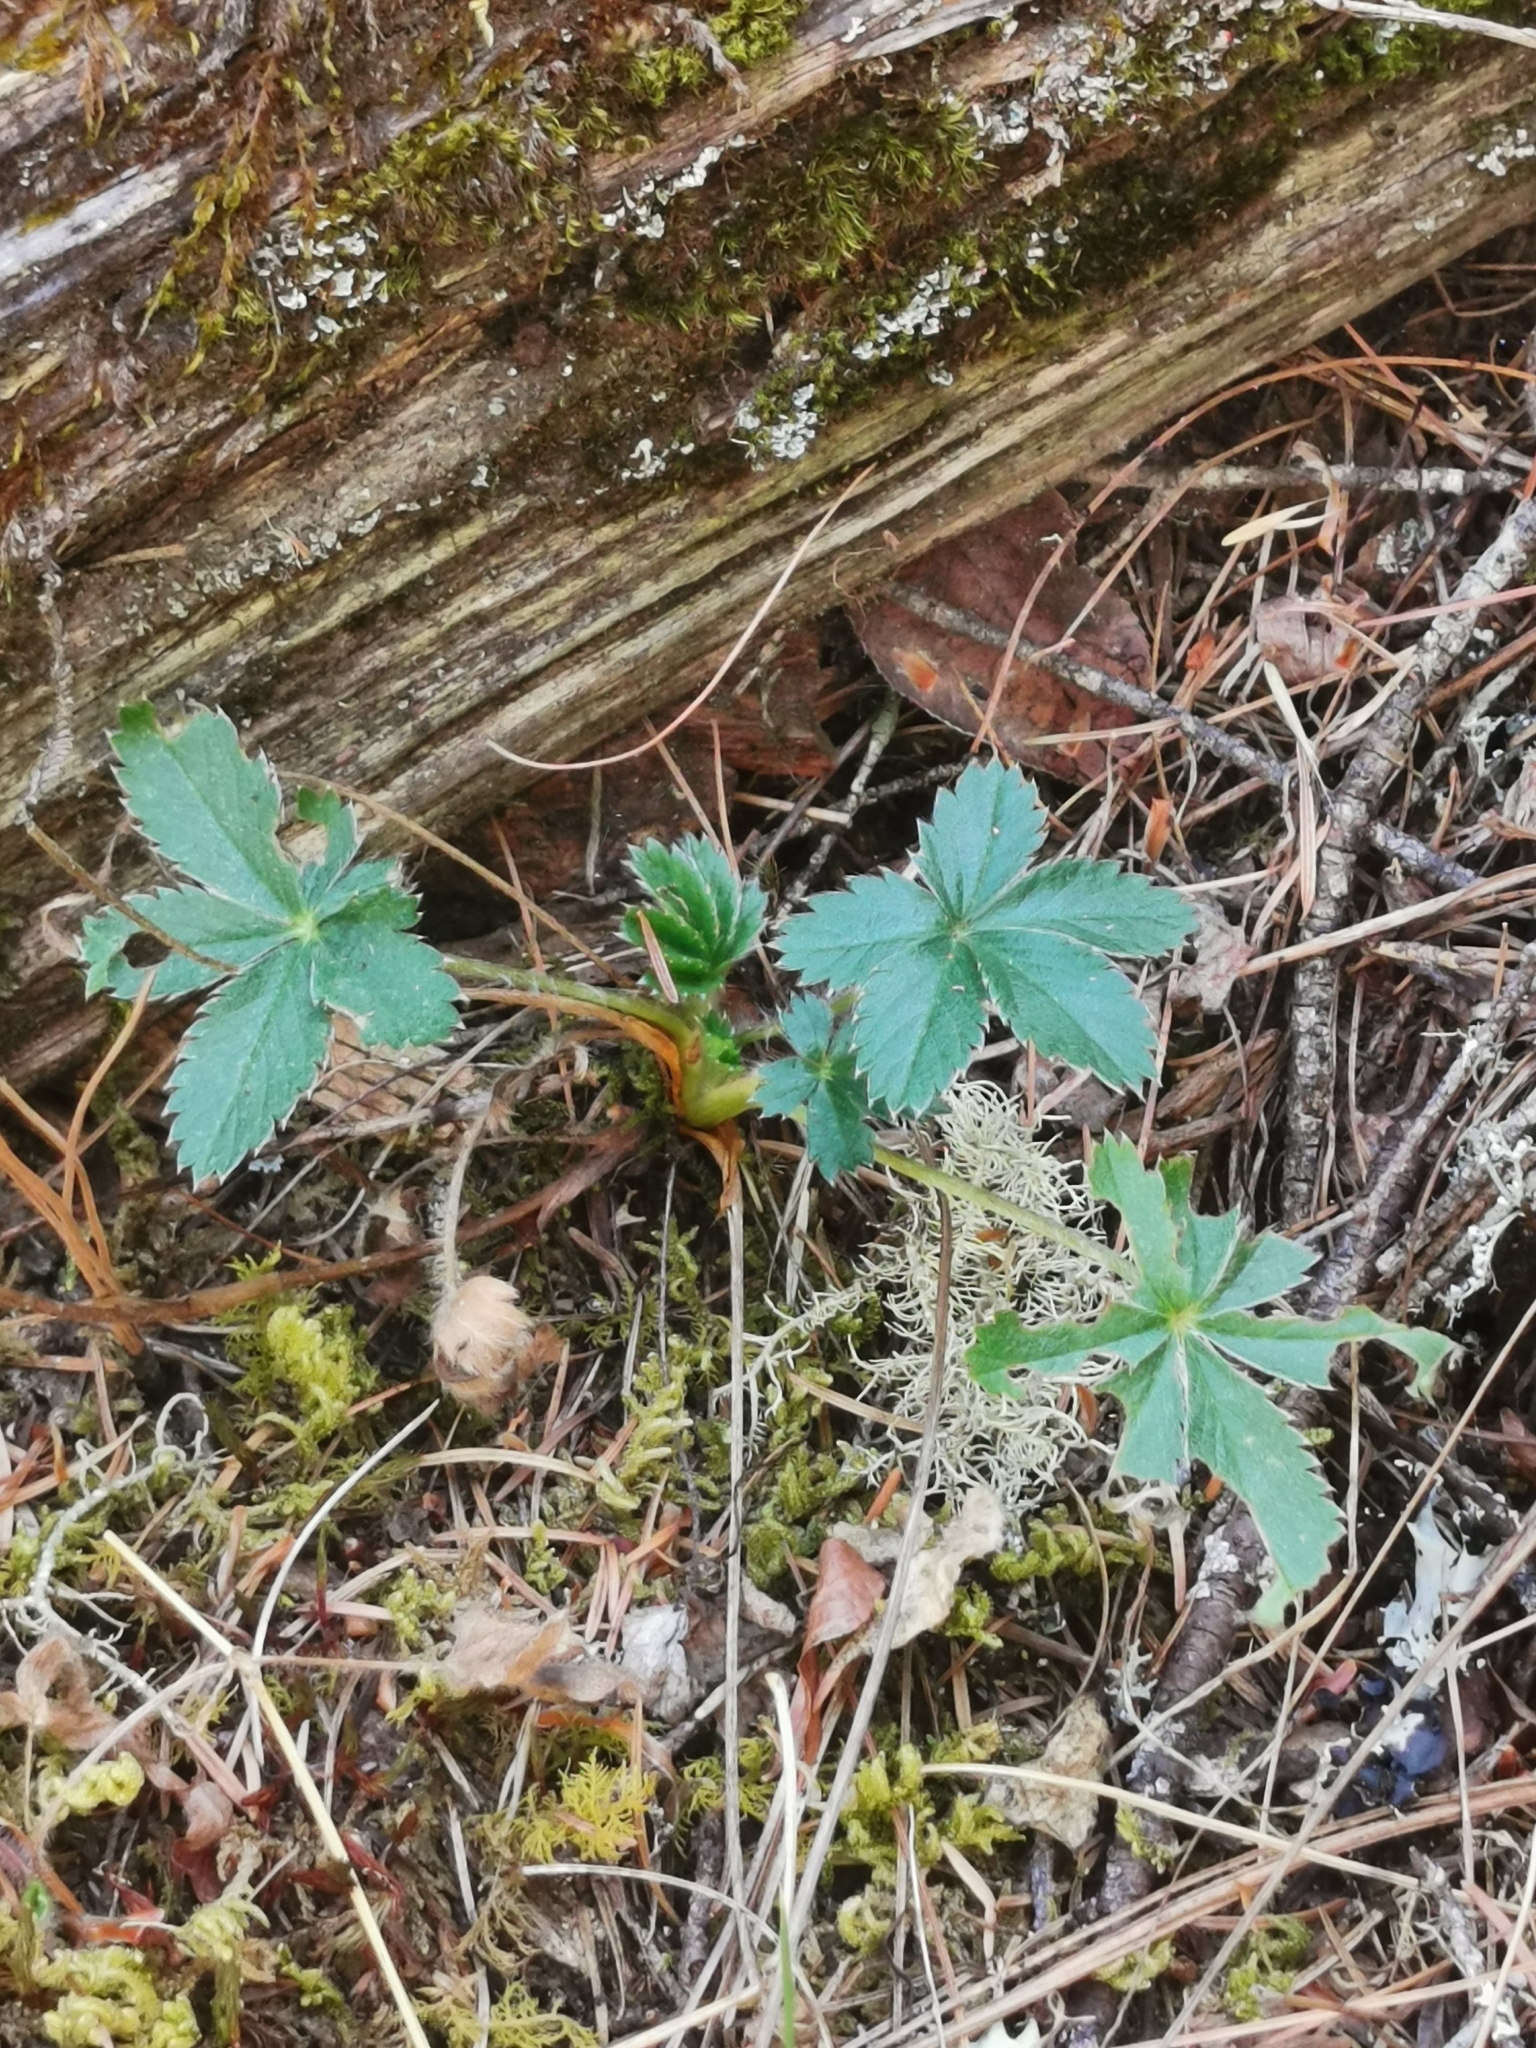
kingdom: Plantae
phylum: Tracheophyta
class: Magnoliopsida
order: Rosales
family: Rosaceae
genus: Potentilla
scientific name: Potentilla thurberi
